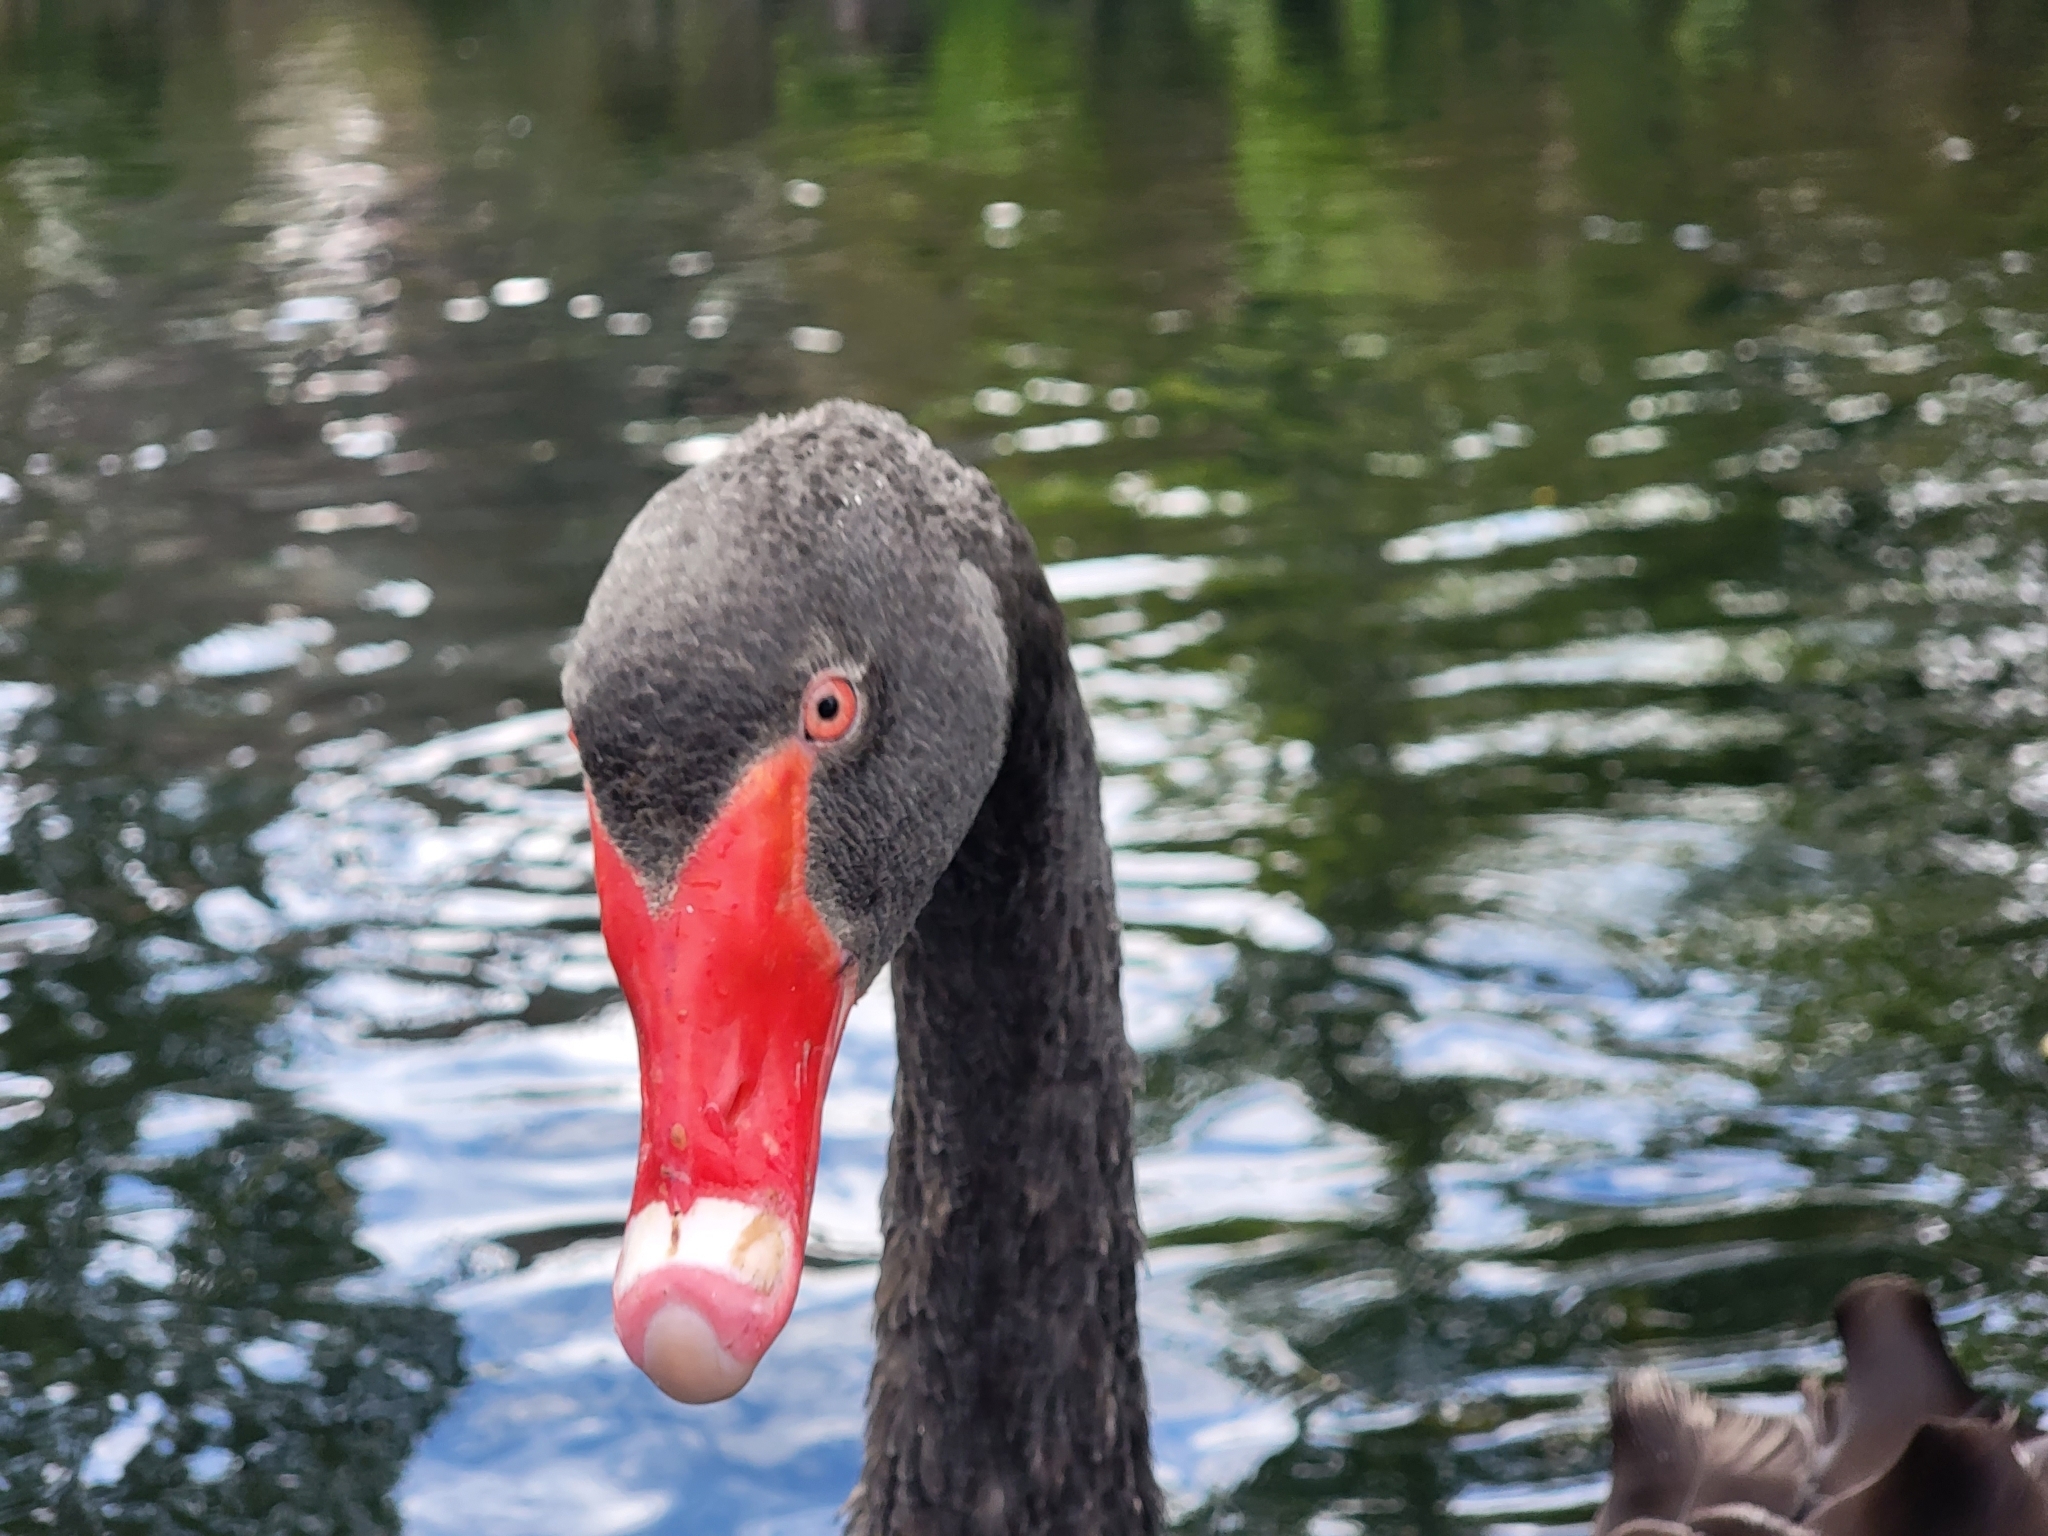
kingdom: Animalia
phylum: Chordata
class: Aves
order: Anseriformes
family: Anatidae
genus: Cygnus
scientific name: Cygnus atratus
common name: Black swan
